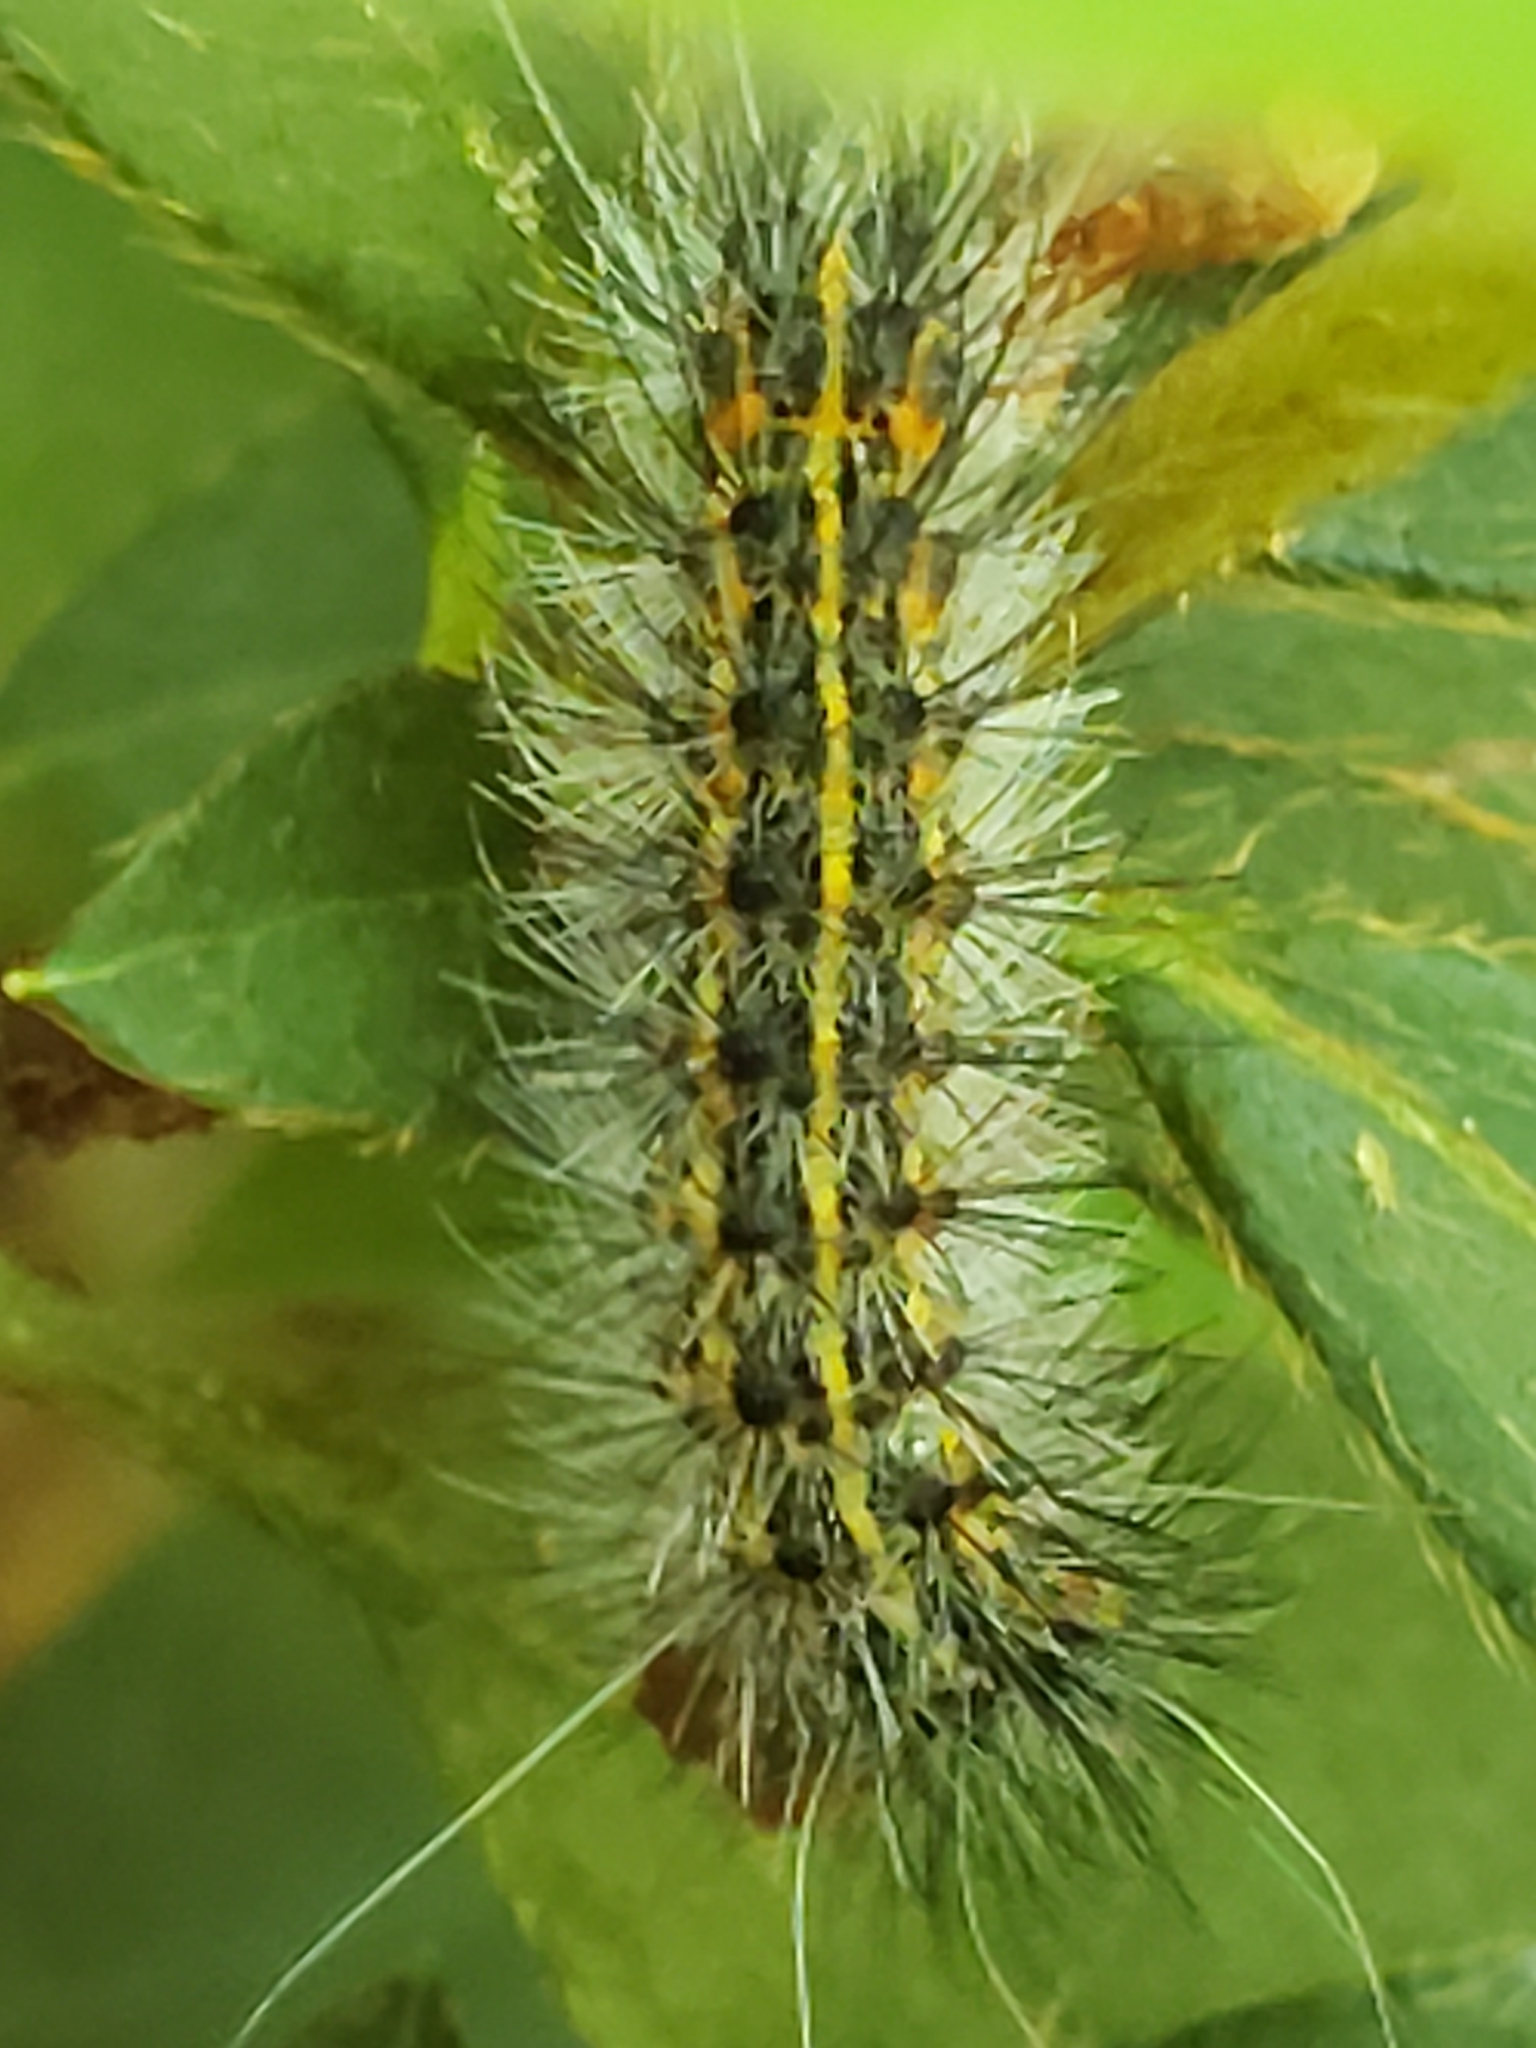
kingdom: Animalia
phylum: Arthropoda
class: Insecta
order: Lepidoptera
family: Erebidae
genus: Spilosoma
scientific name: Spilosoma dubia
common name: Dubious tiger moth
